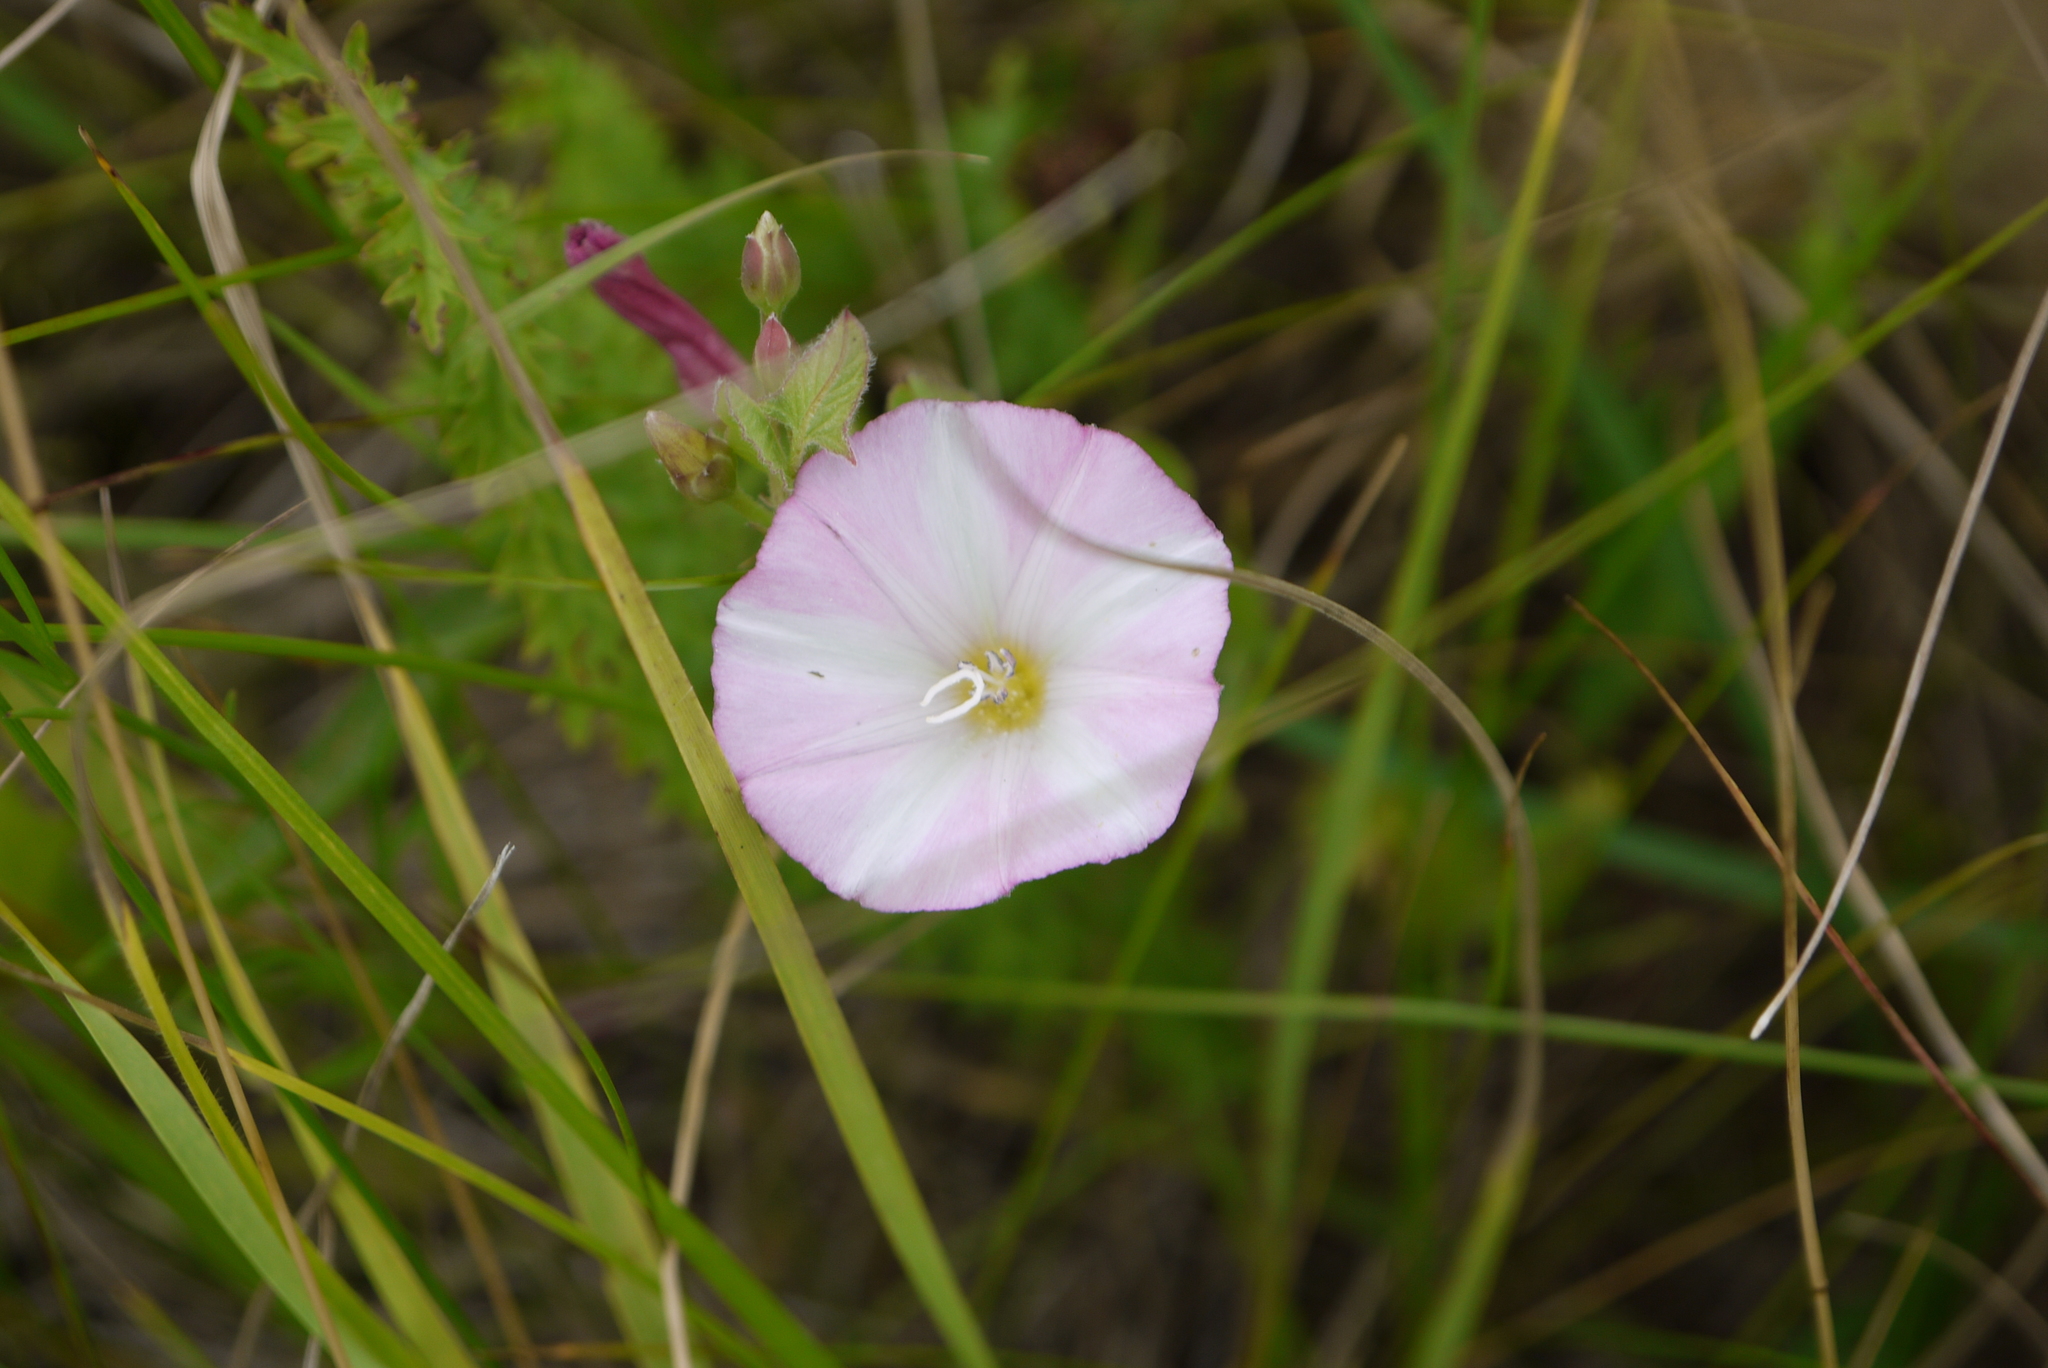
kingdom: Plantae
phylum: Tracheophyta
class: Magnoliopsida
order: Solanales
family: Convolvulaceae
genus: Convolvulus
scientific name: Convolvulus arvensis
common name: Field bindweed
